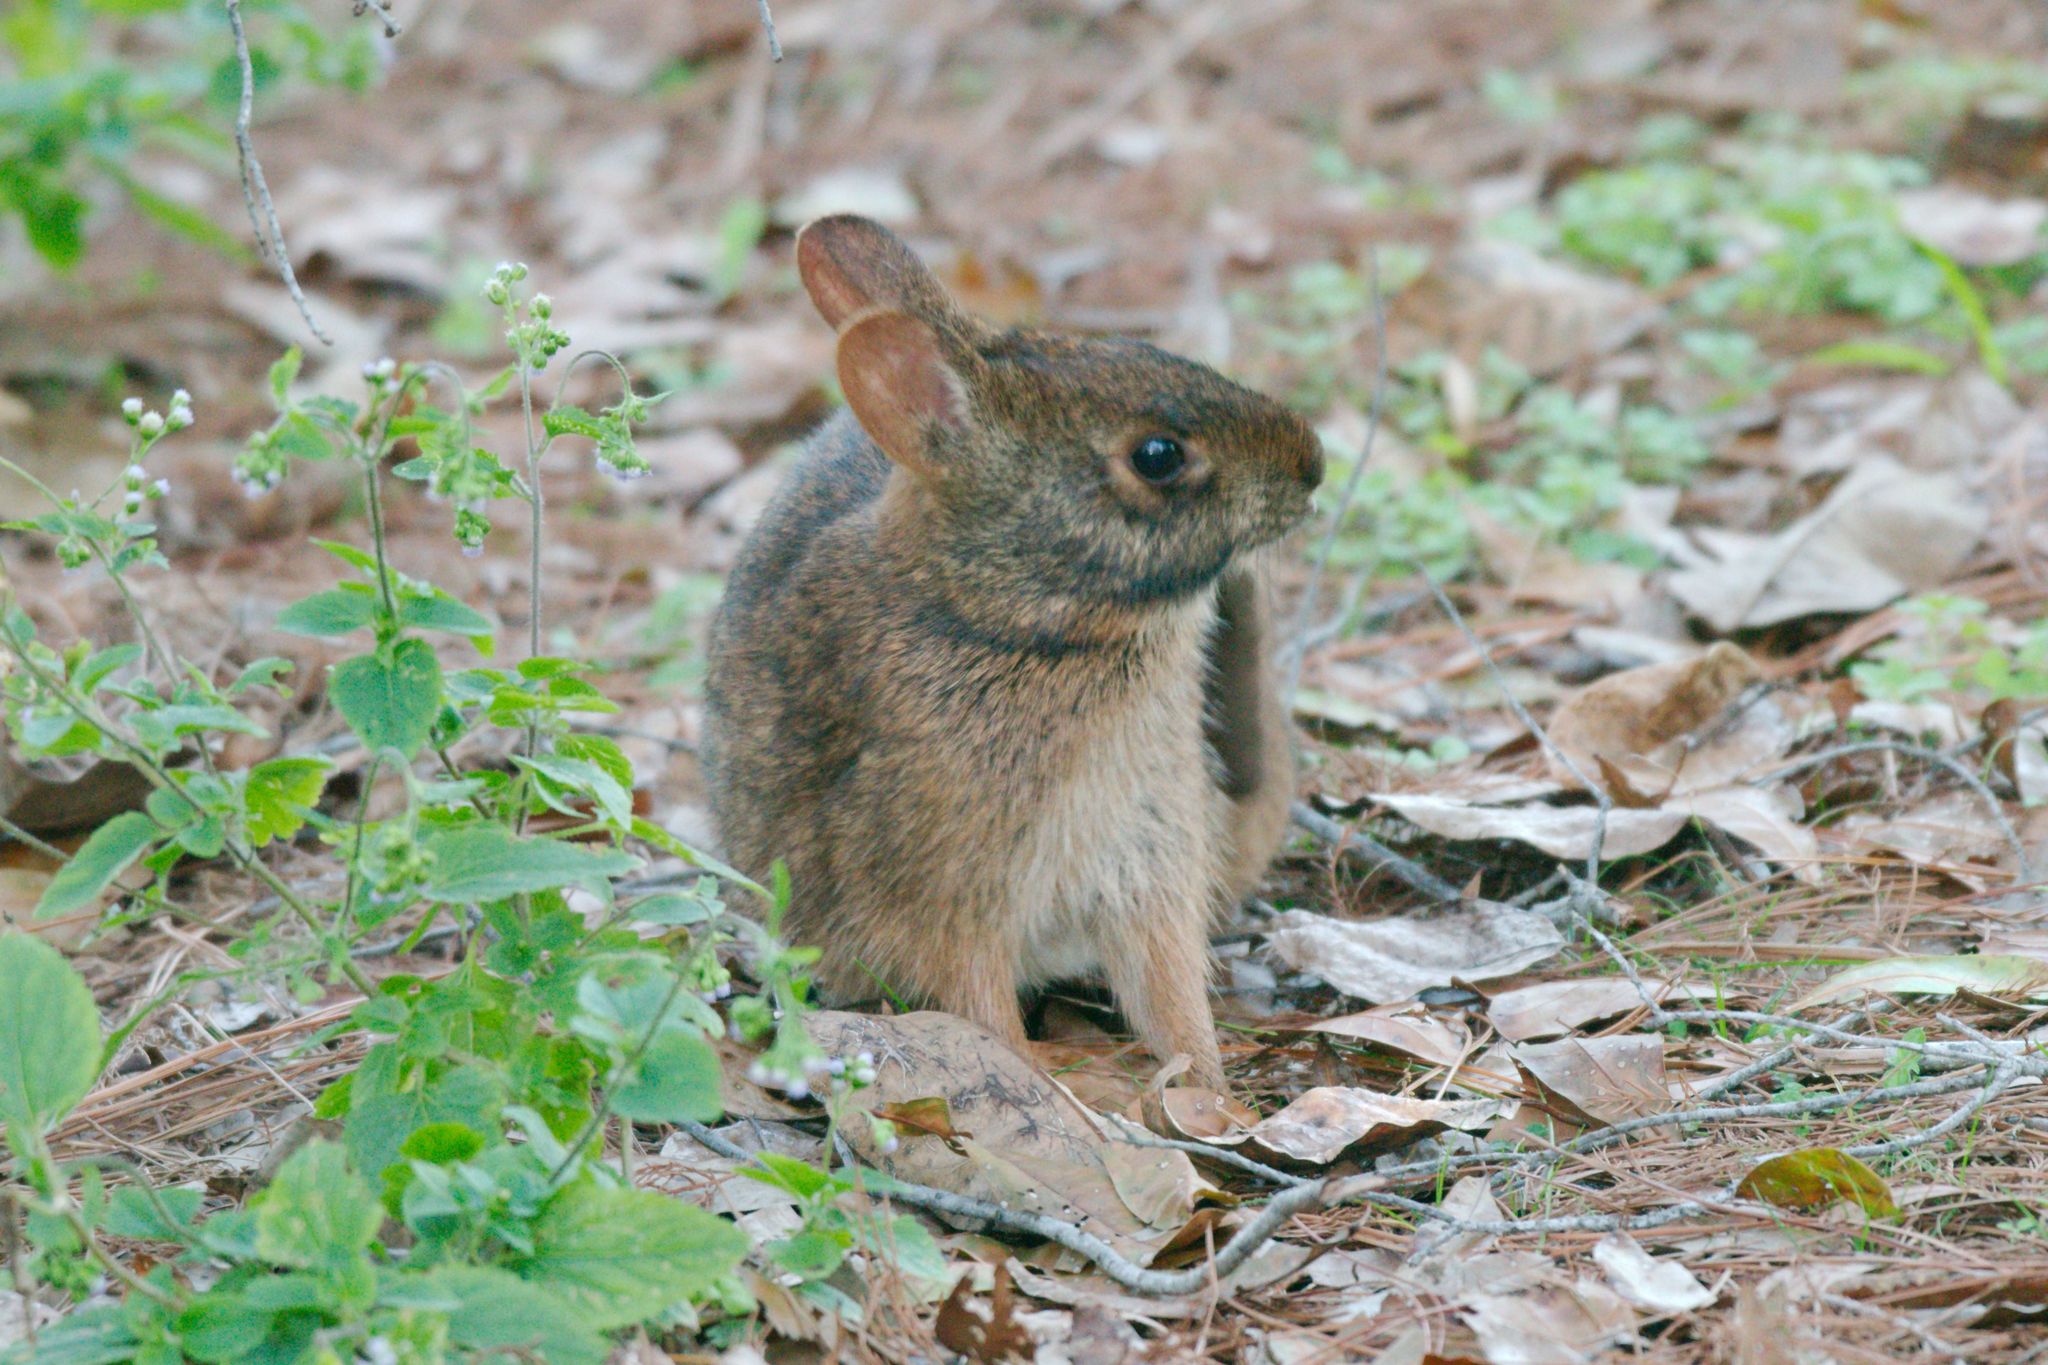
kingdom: Animalia
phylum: Chordata
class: Mammalia
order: Lagomorpha
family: Leporidae
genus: Sylvilagus
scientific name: Sylvilagus palustris
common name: Marsh rabbit
